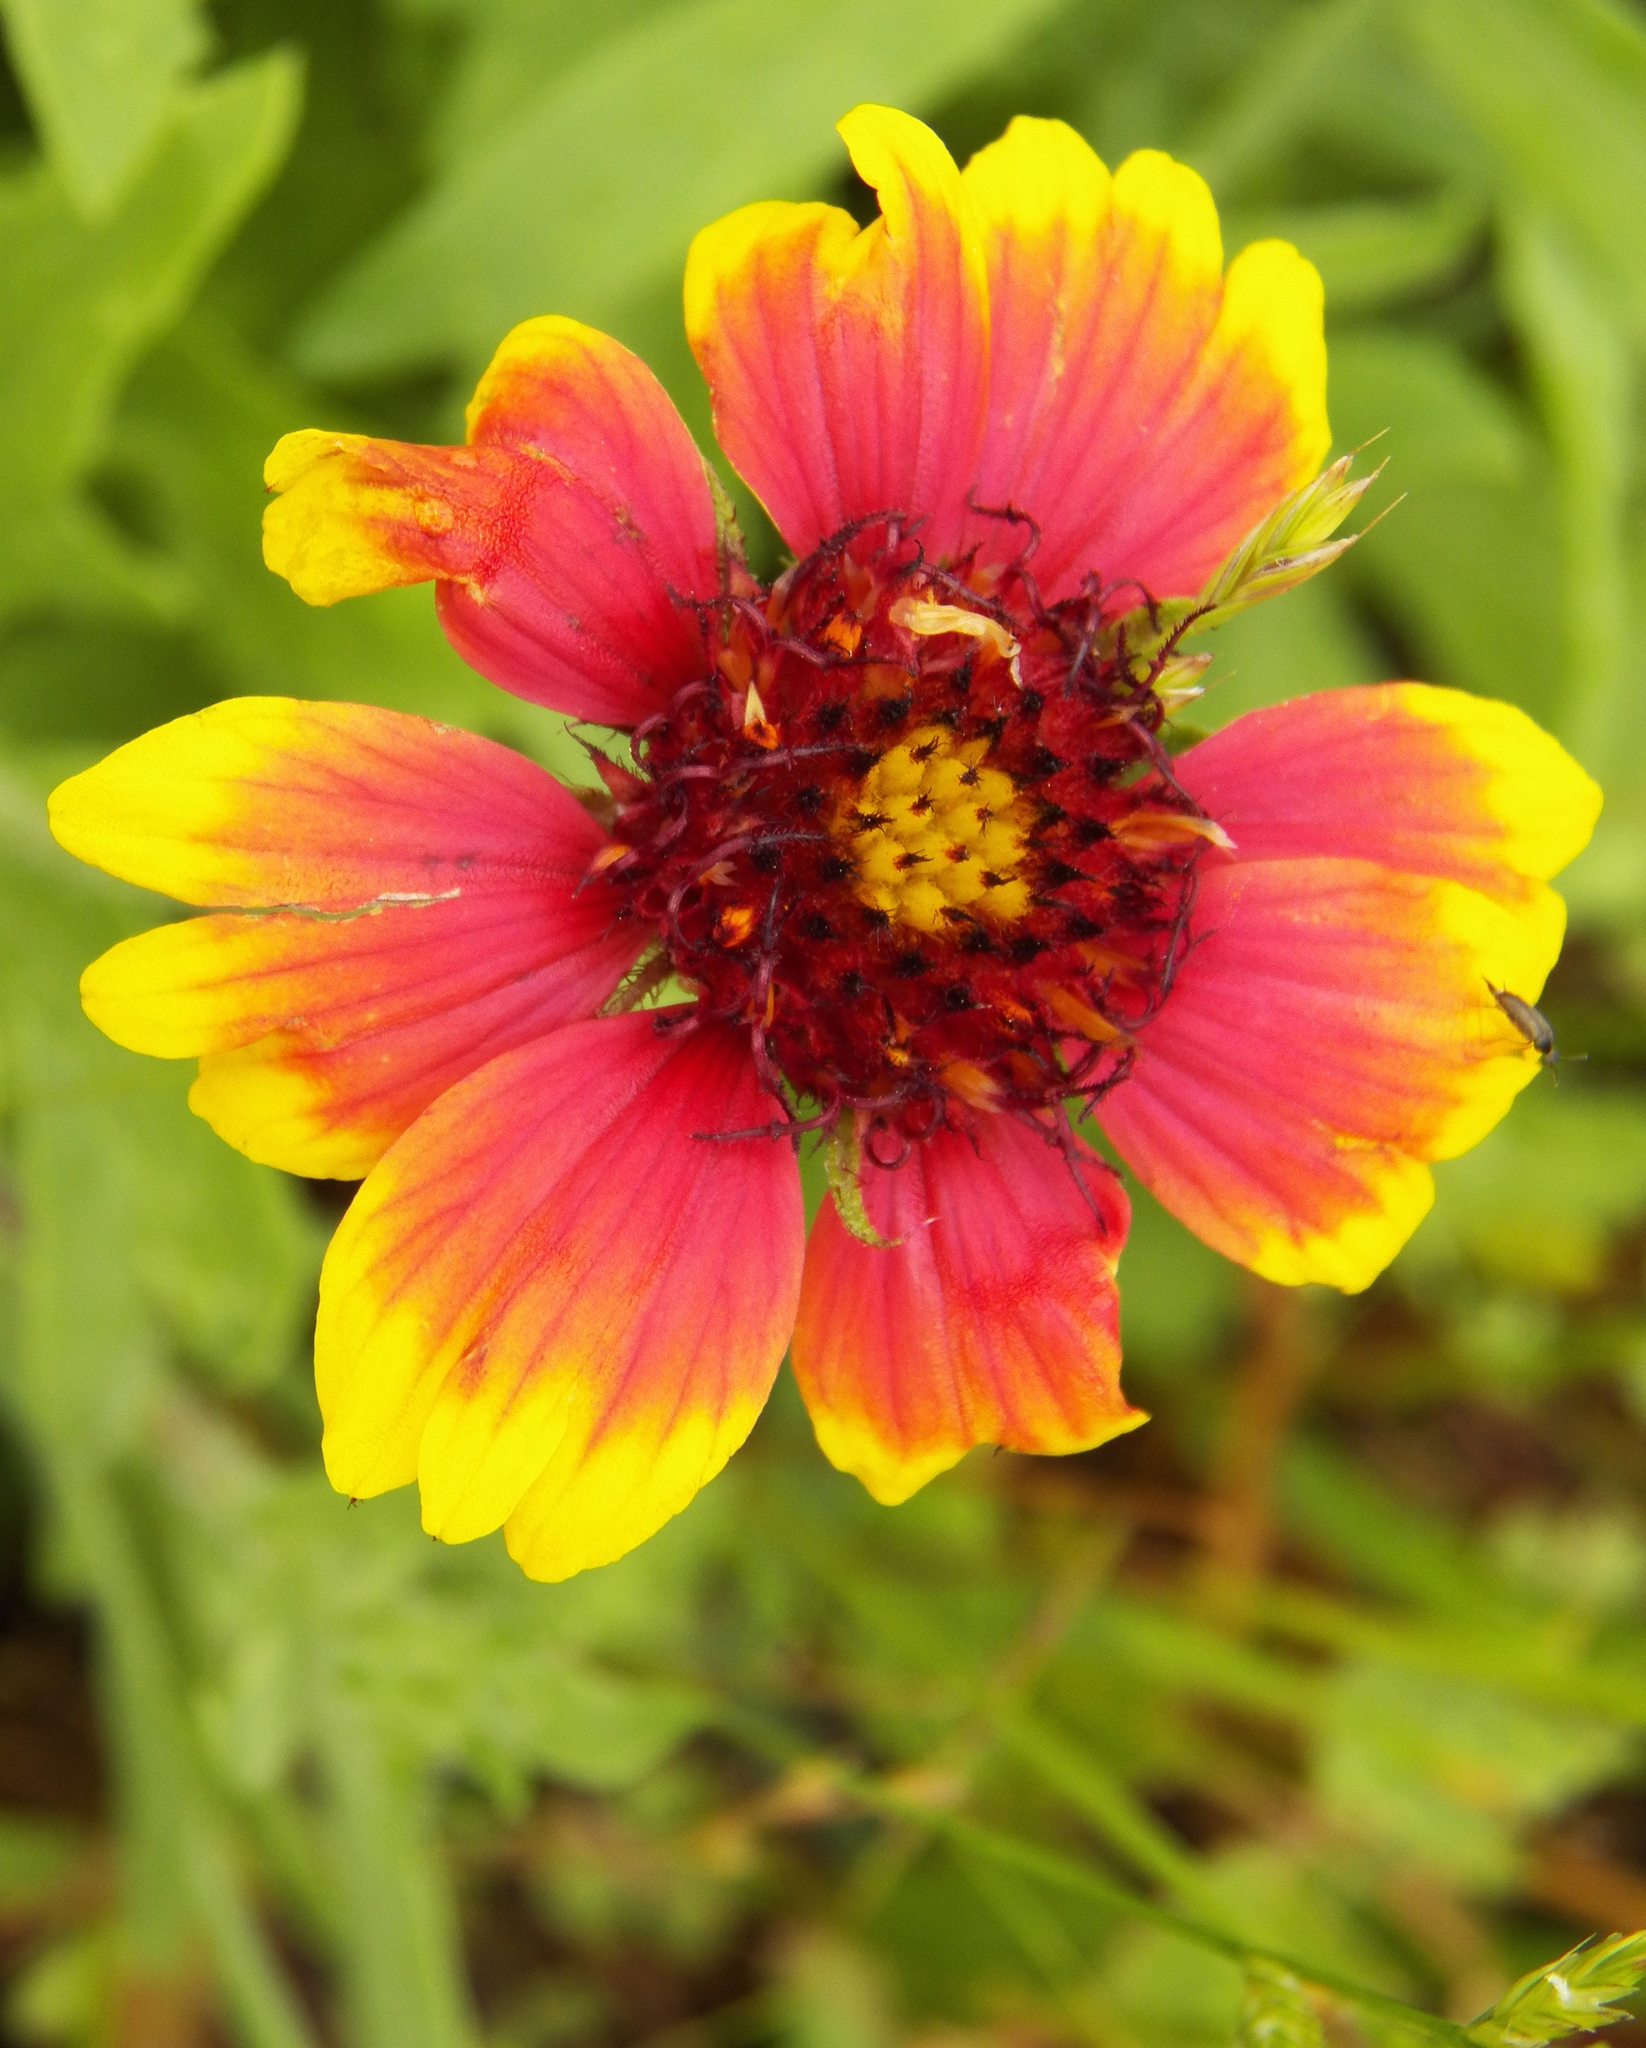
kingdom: Plantae
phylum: Tracheophyta
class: Magnoliopsida
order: Asterales
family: Asteraceae
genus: Gaillardia
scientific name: Gaillardia pulchella
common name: Firewheel
